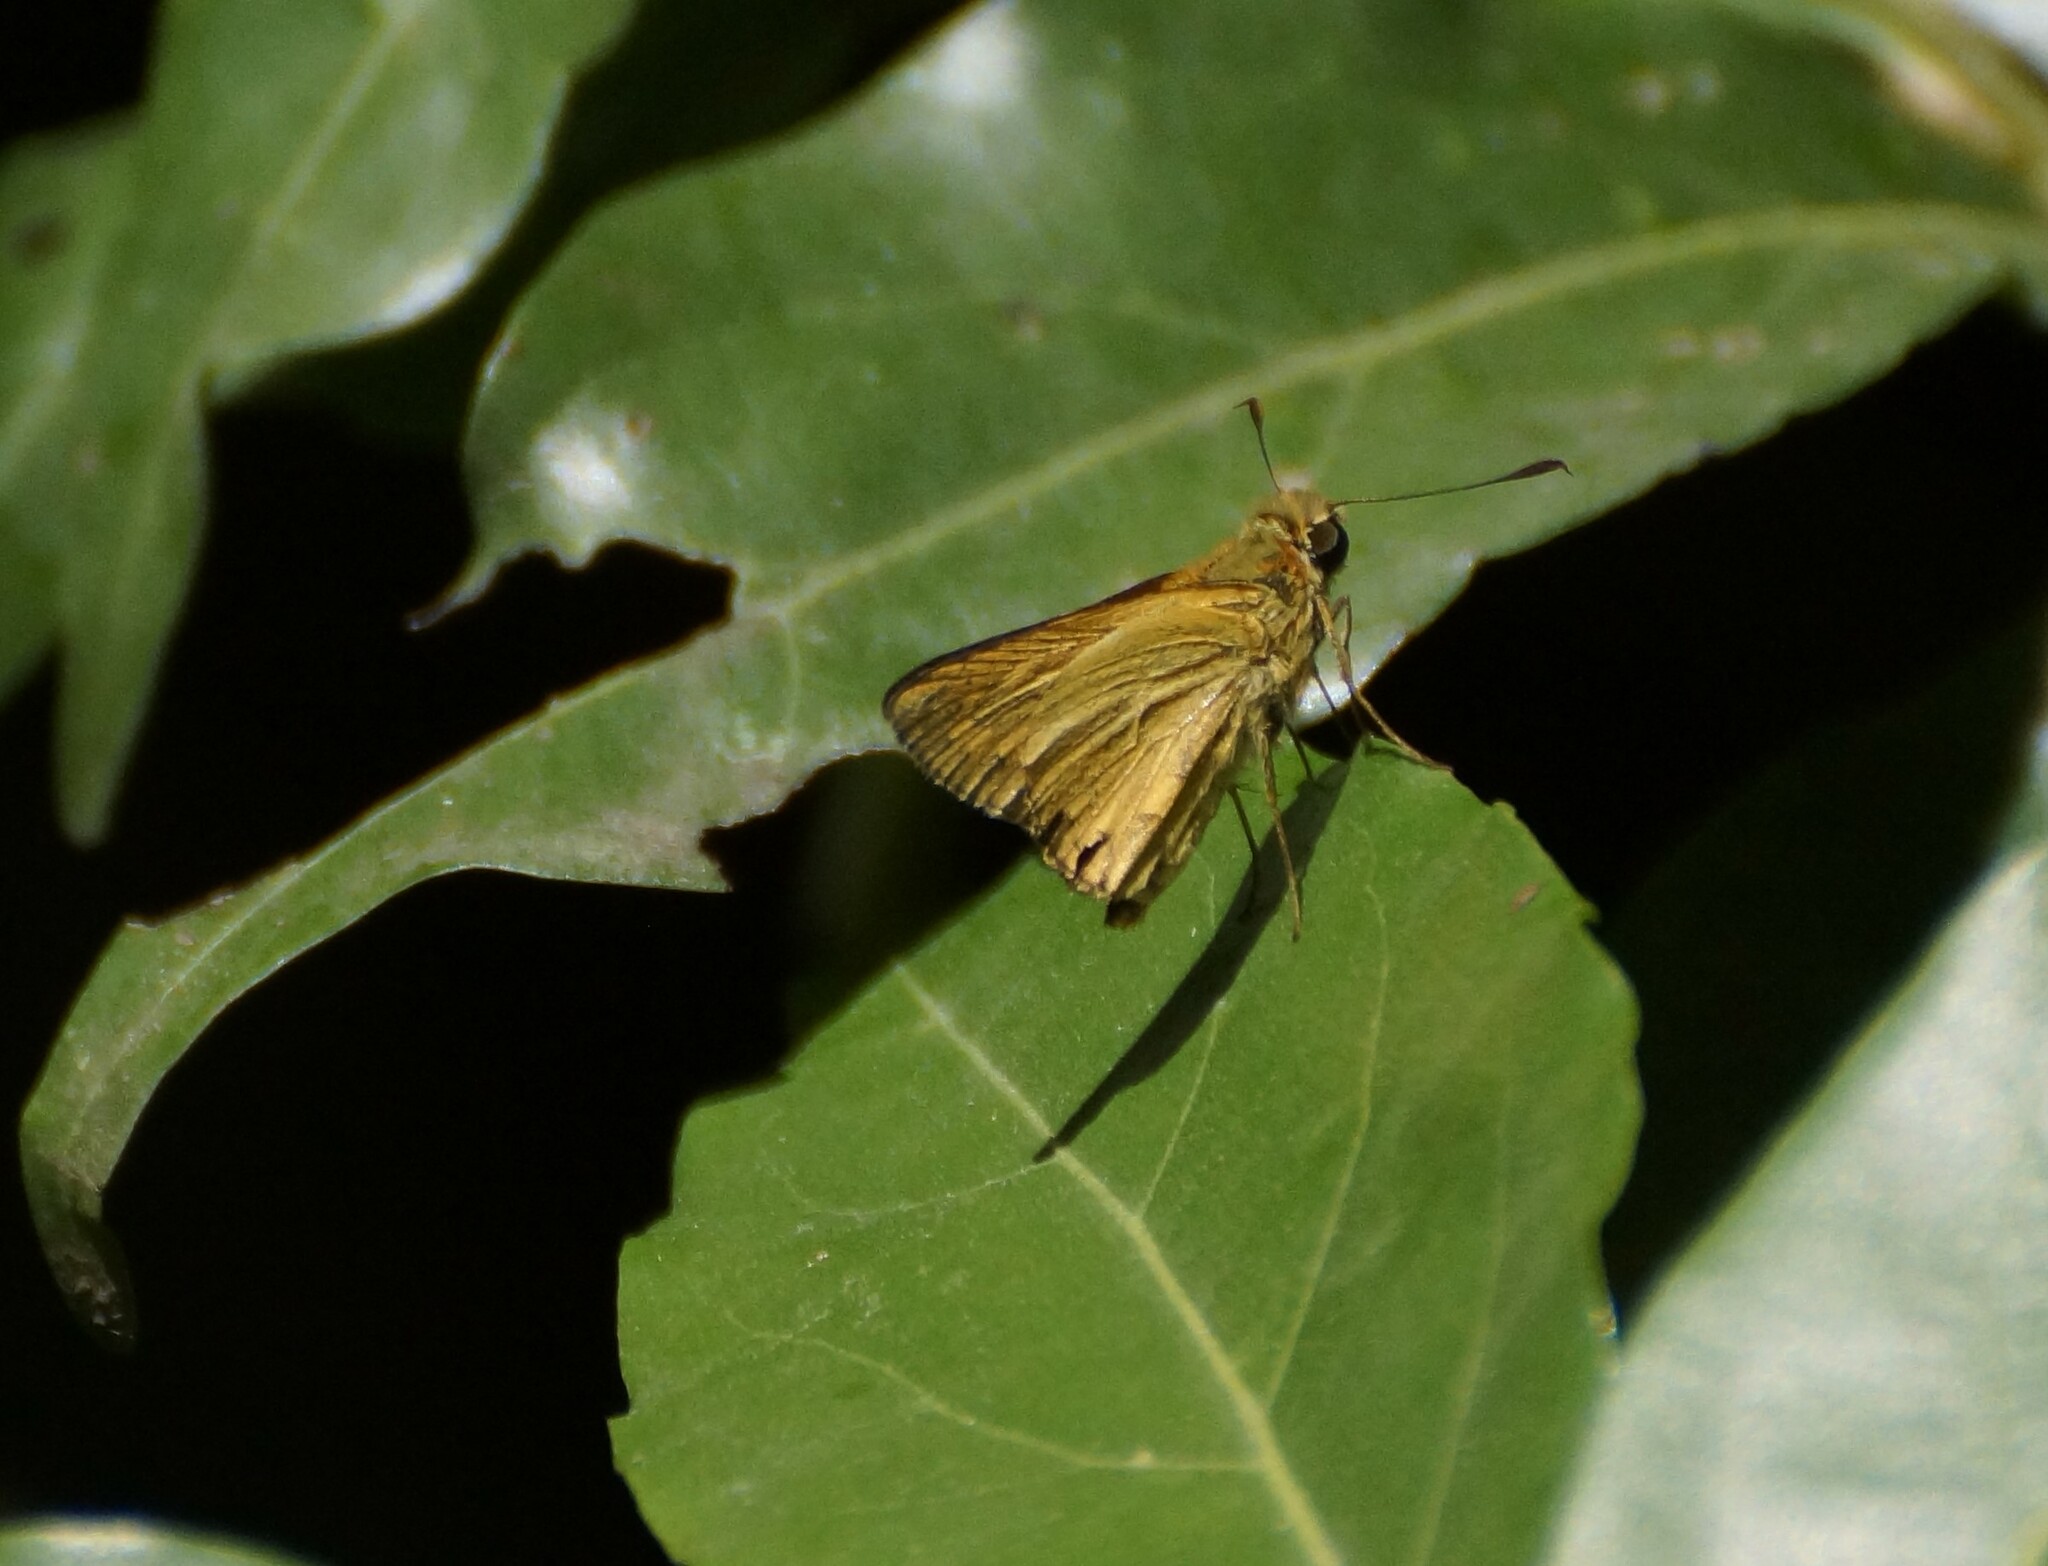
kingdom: Animalia
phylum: Arthropoda
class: Insecta
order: Lepidoptera
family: Hesperiidae
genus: Telicota
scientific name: Telicota paceka
